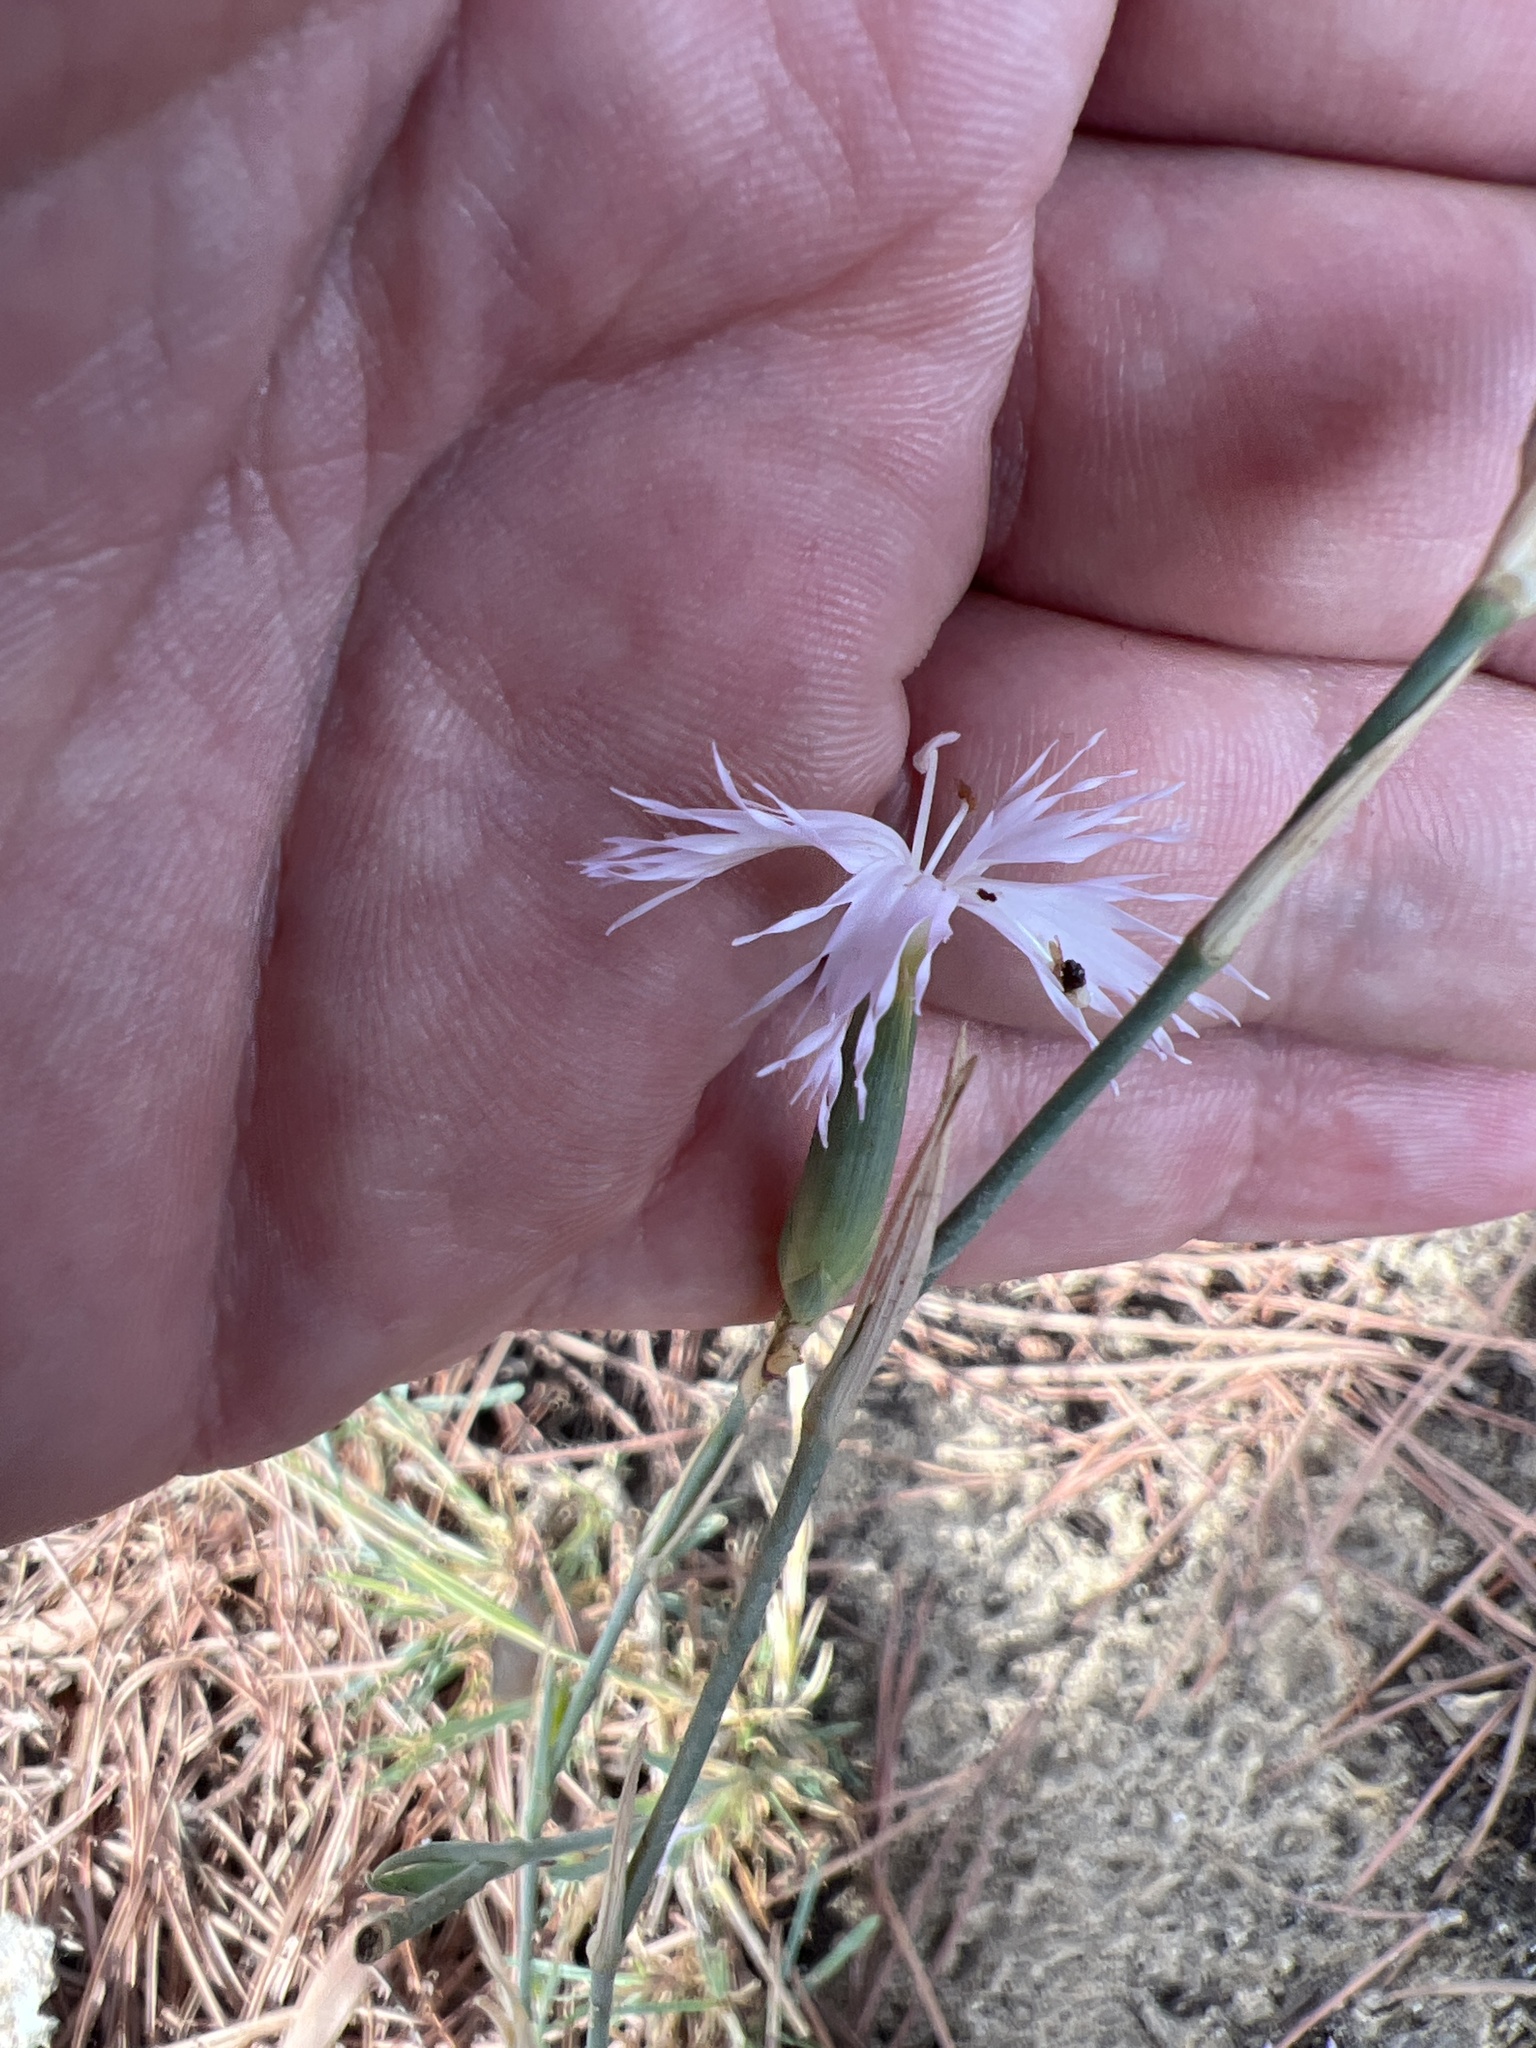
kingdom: Plantae
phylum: Tracheophyta
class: Magnoliopsida
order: Caryophyllales
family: Caryophyllaceae
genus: Dianthus
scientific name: Dianthus broteri
